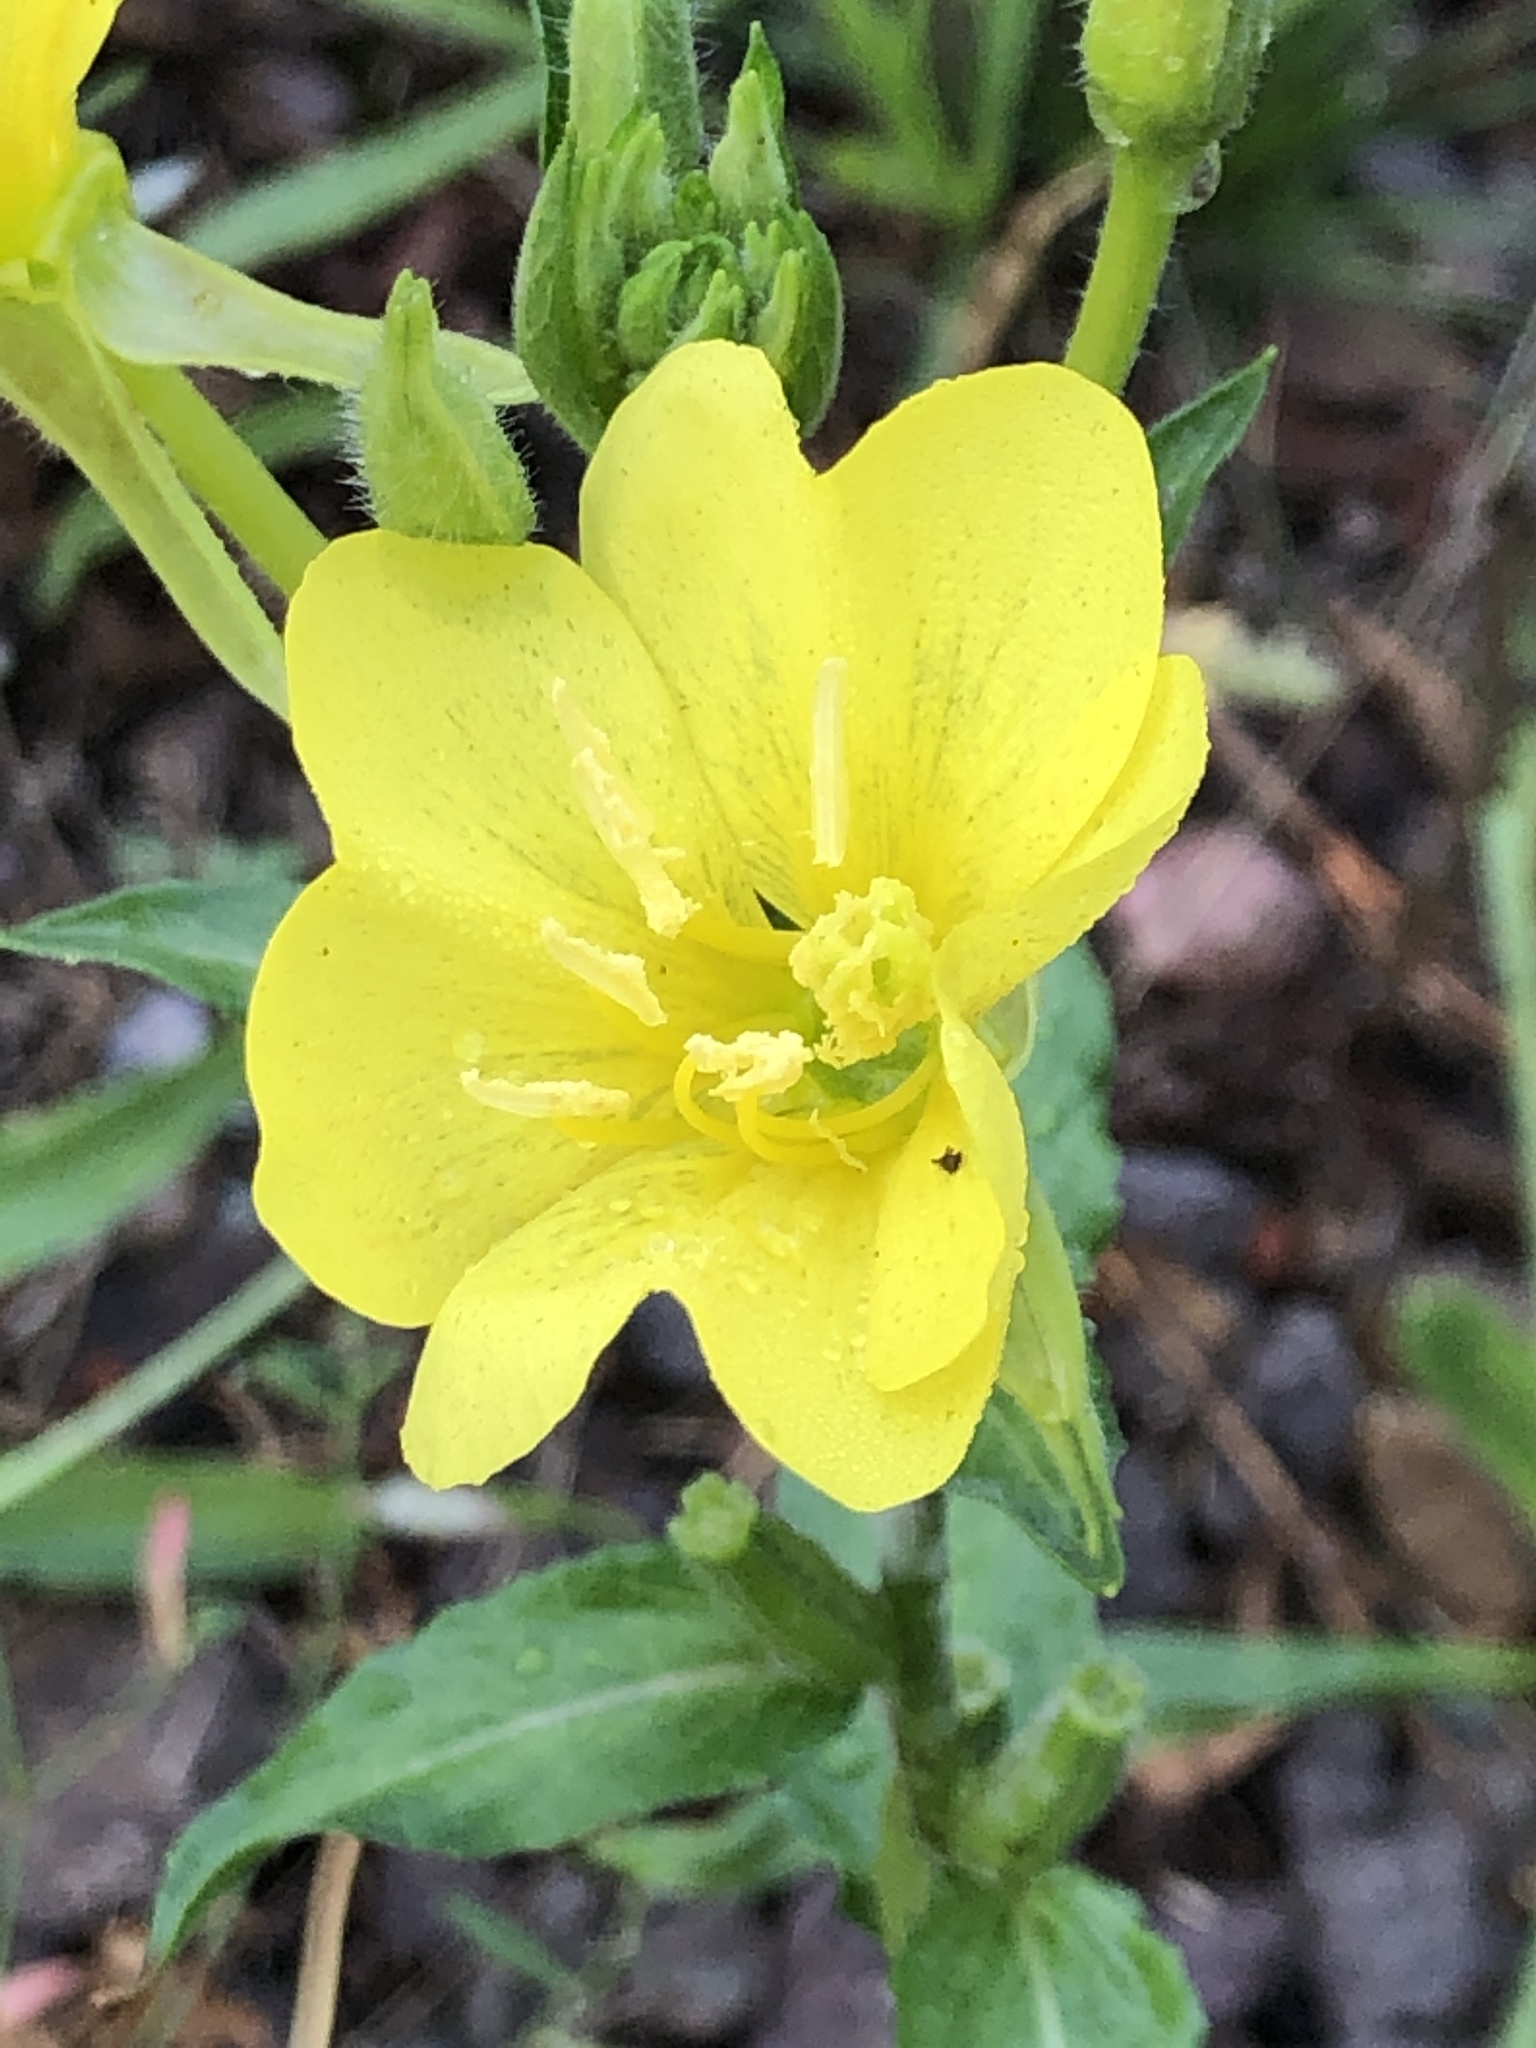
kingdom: Plantae
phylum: Tracheophyta
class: Magnoliopsida
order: Myrtales
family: Onagraceae
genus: Oenothera
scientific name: Oenothera biennis
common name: Common evening-primrose
